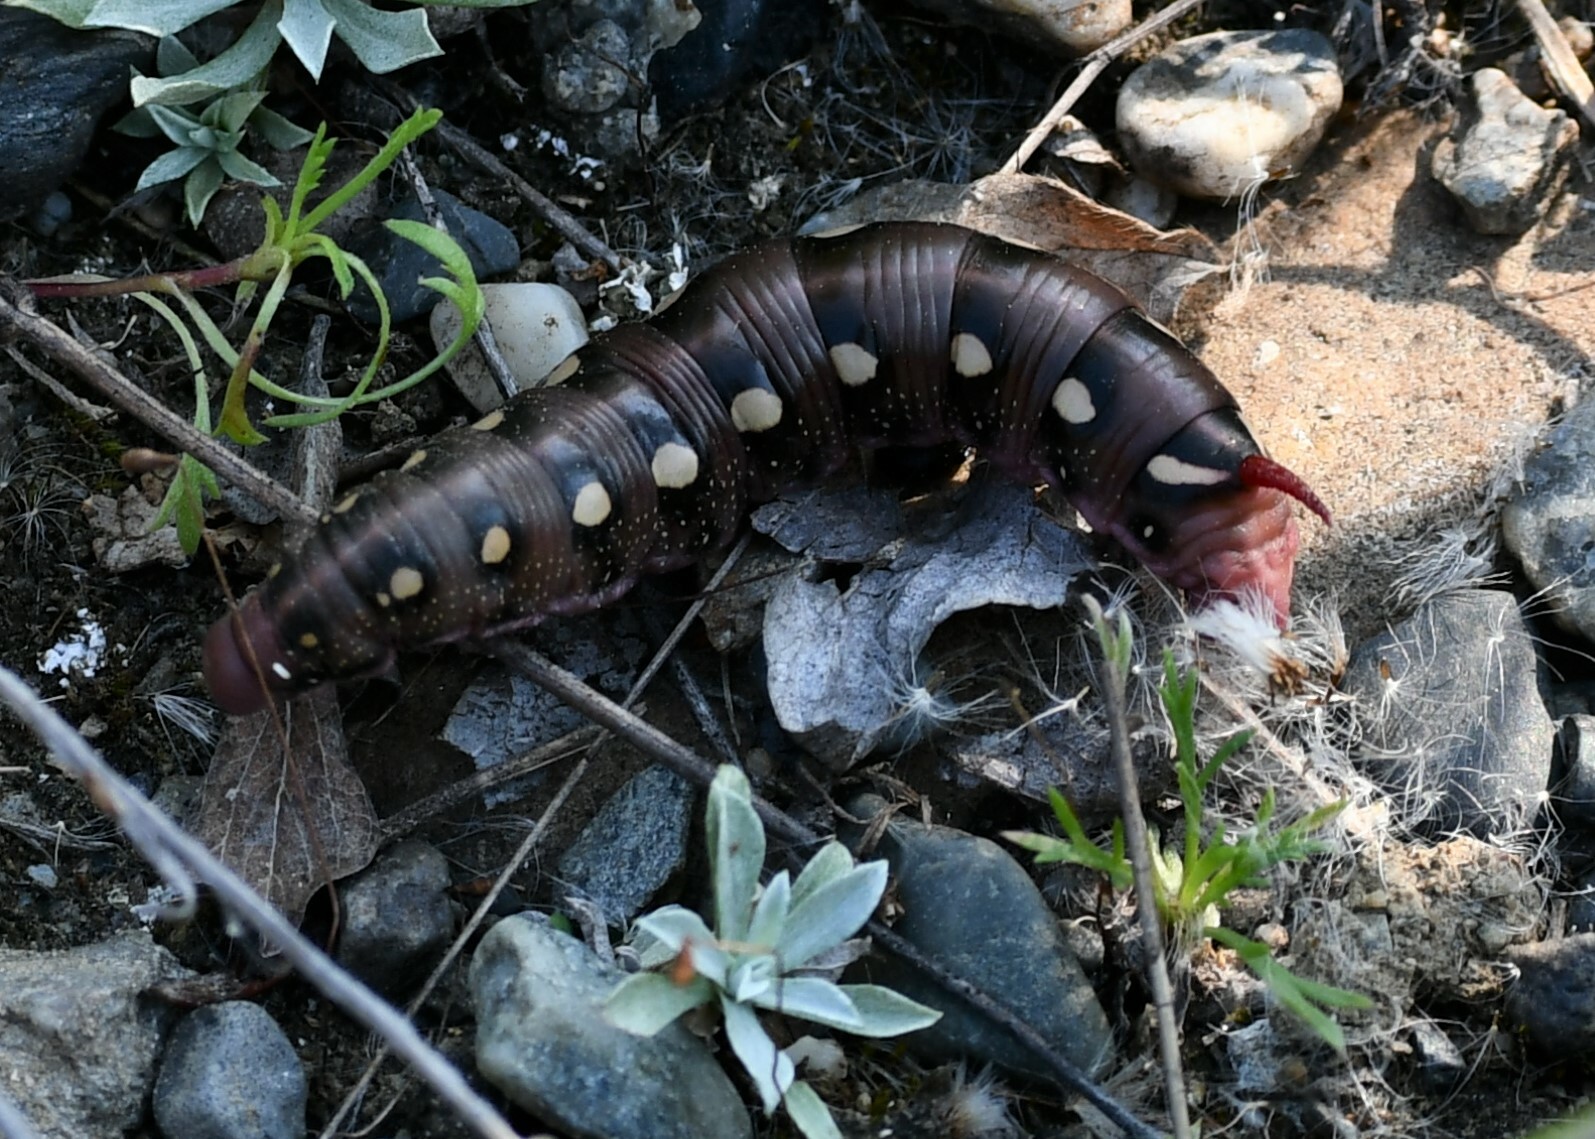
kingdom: Animalia
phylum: Arthropoda
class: Insecta
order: Lepidoptera
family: Sphingidae
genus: Hyles
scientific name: Hyles gallii
